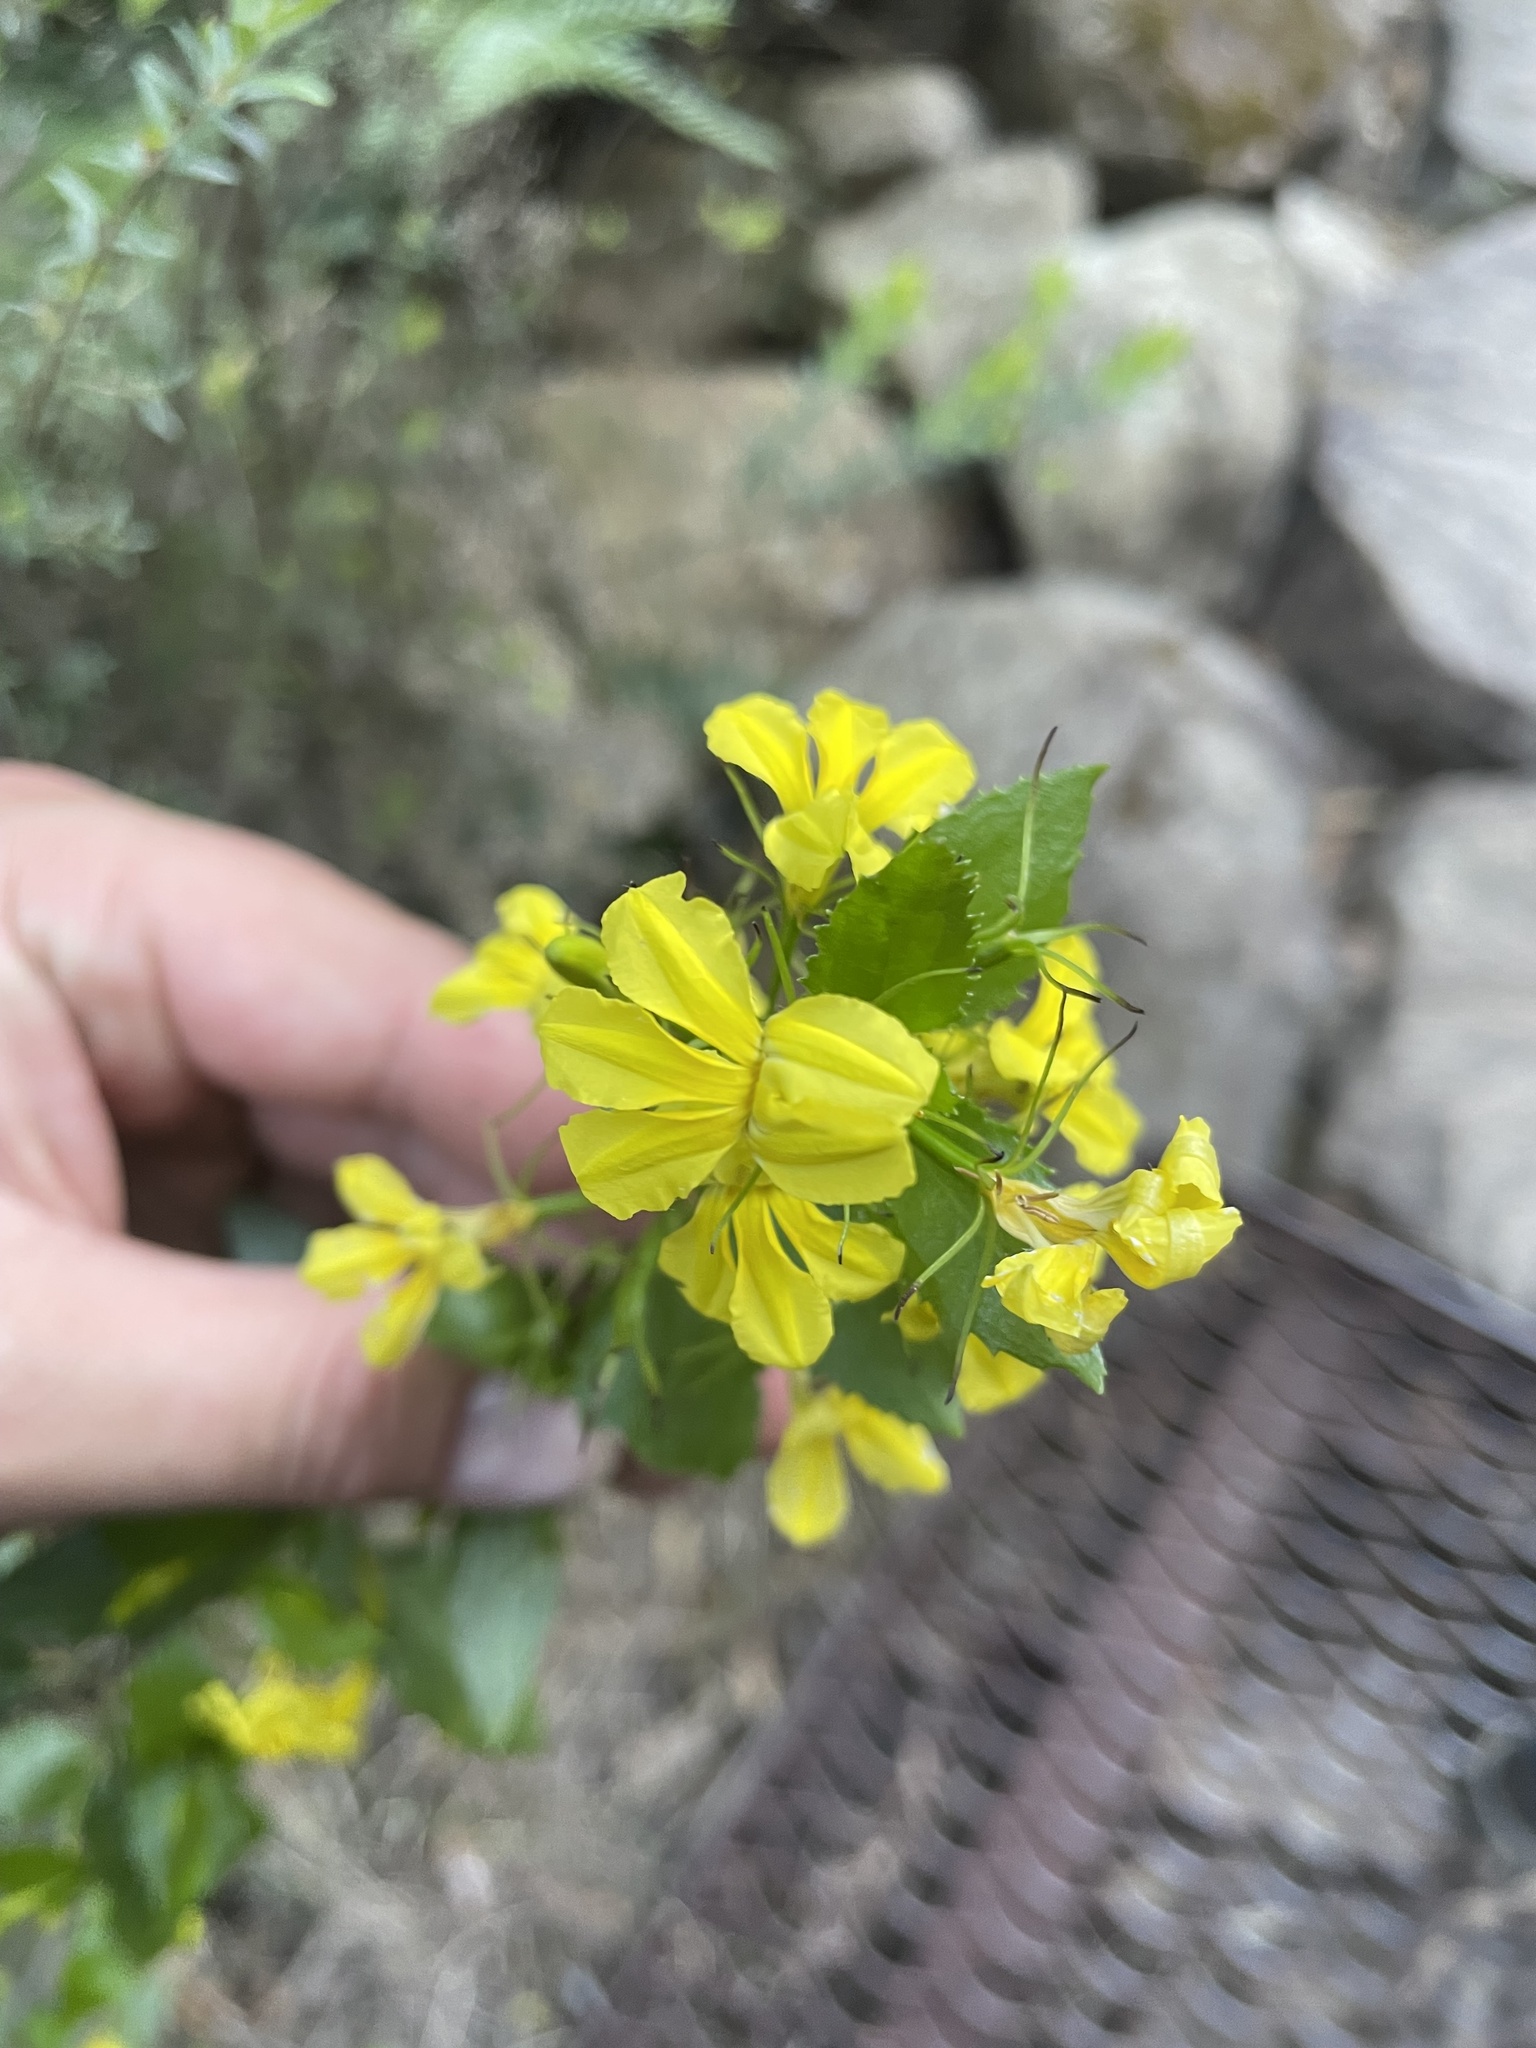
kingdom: Plantae
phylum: Tracheophyta
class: Magnoliopsida
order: Asterales
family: Goodeniaceae
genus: Goodenia
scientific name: Goodenia ovata
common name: Hop goodenia
